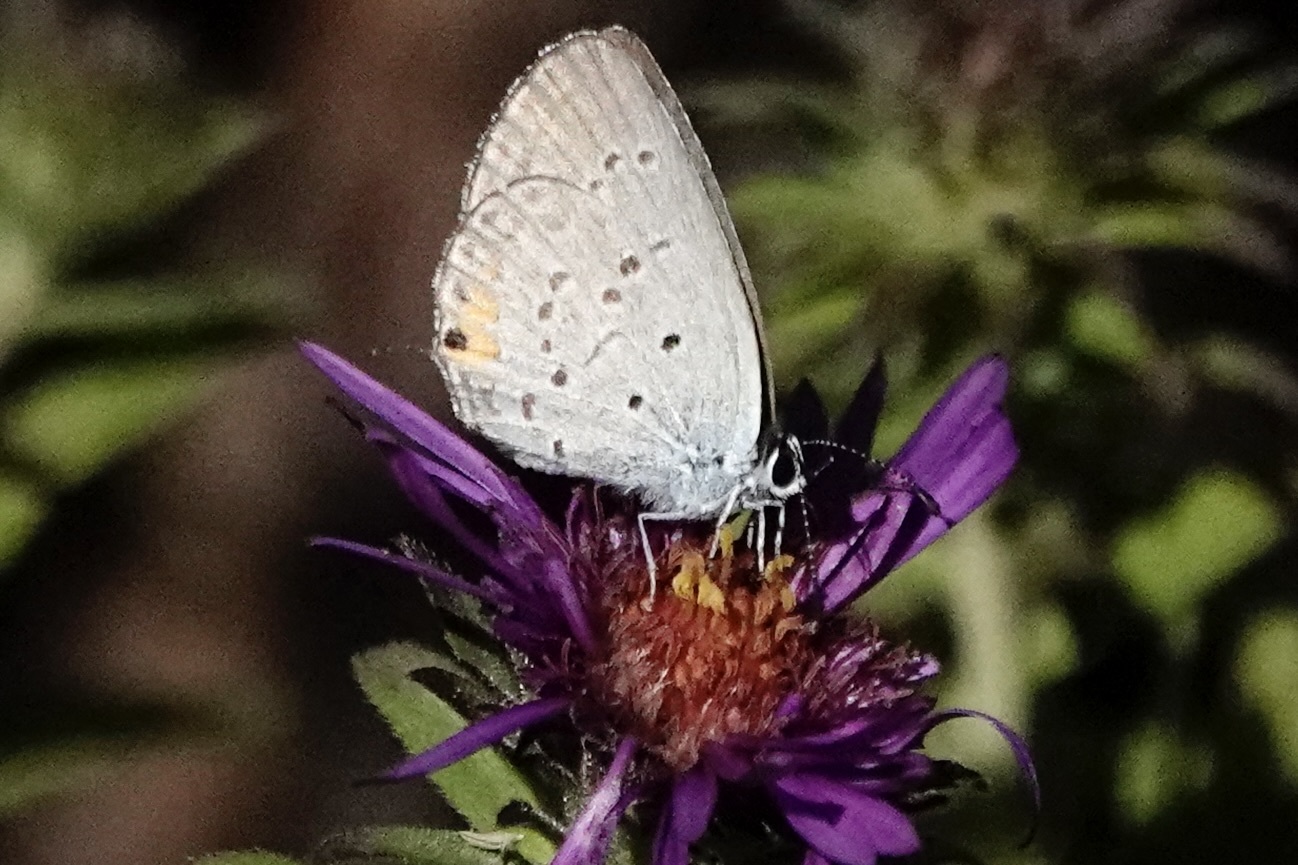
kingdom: Animalia
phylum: Arthropoda
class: Insecta
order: Lepidoptera
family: Lycaenidae
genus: Elkalyce
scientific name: Elkalyce comyntas
